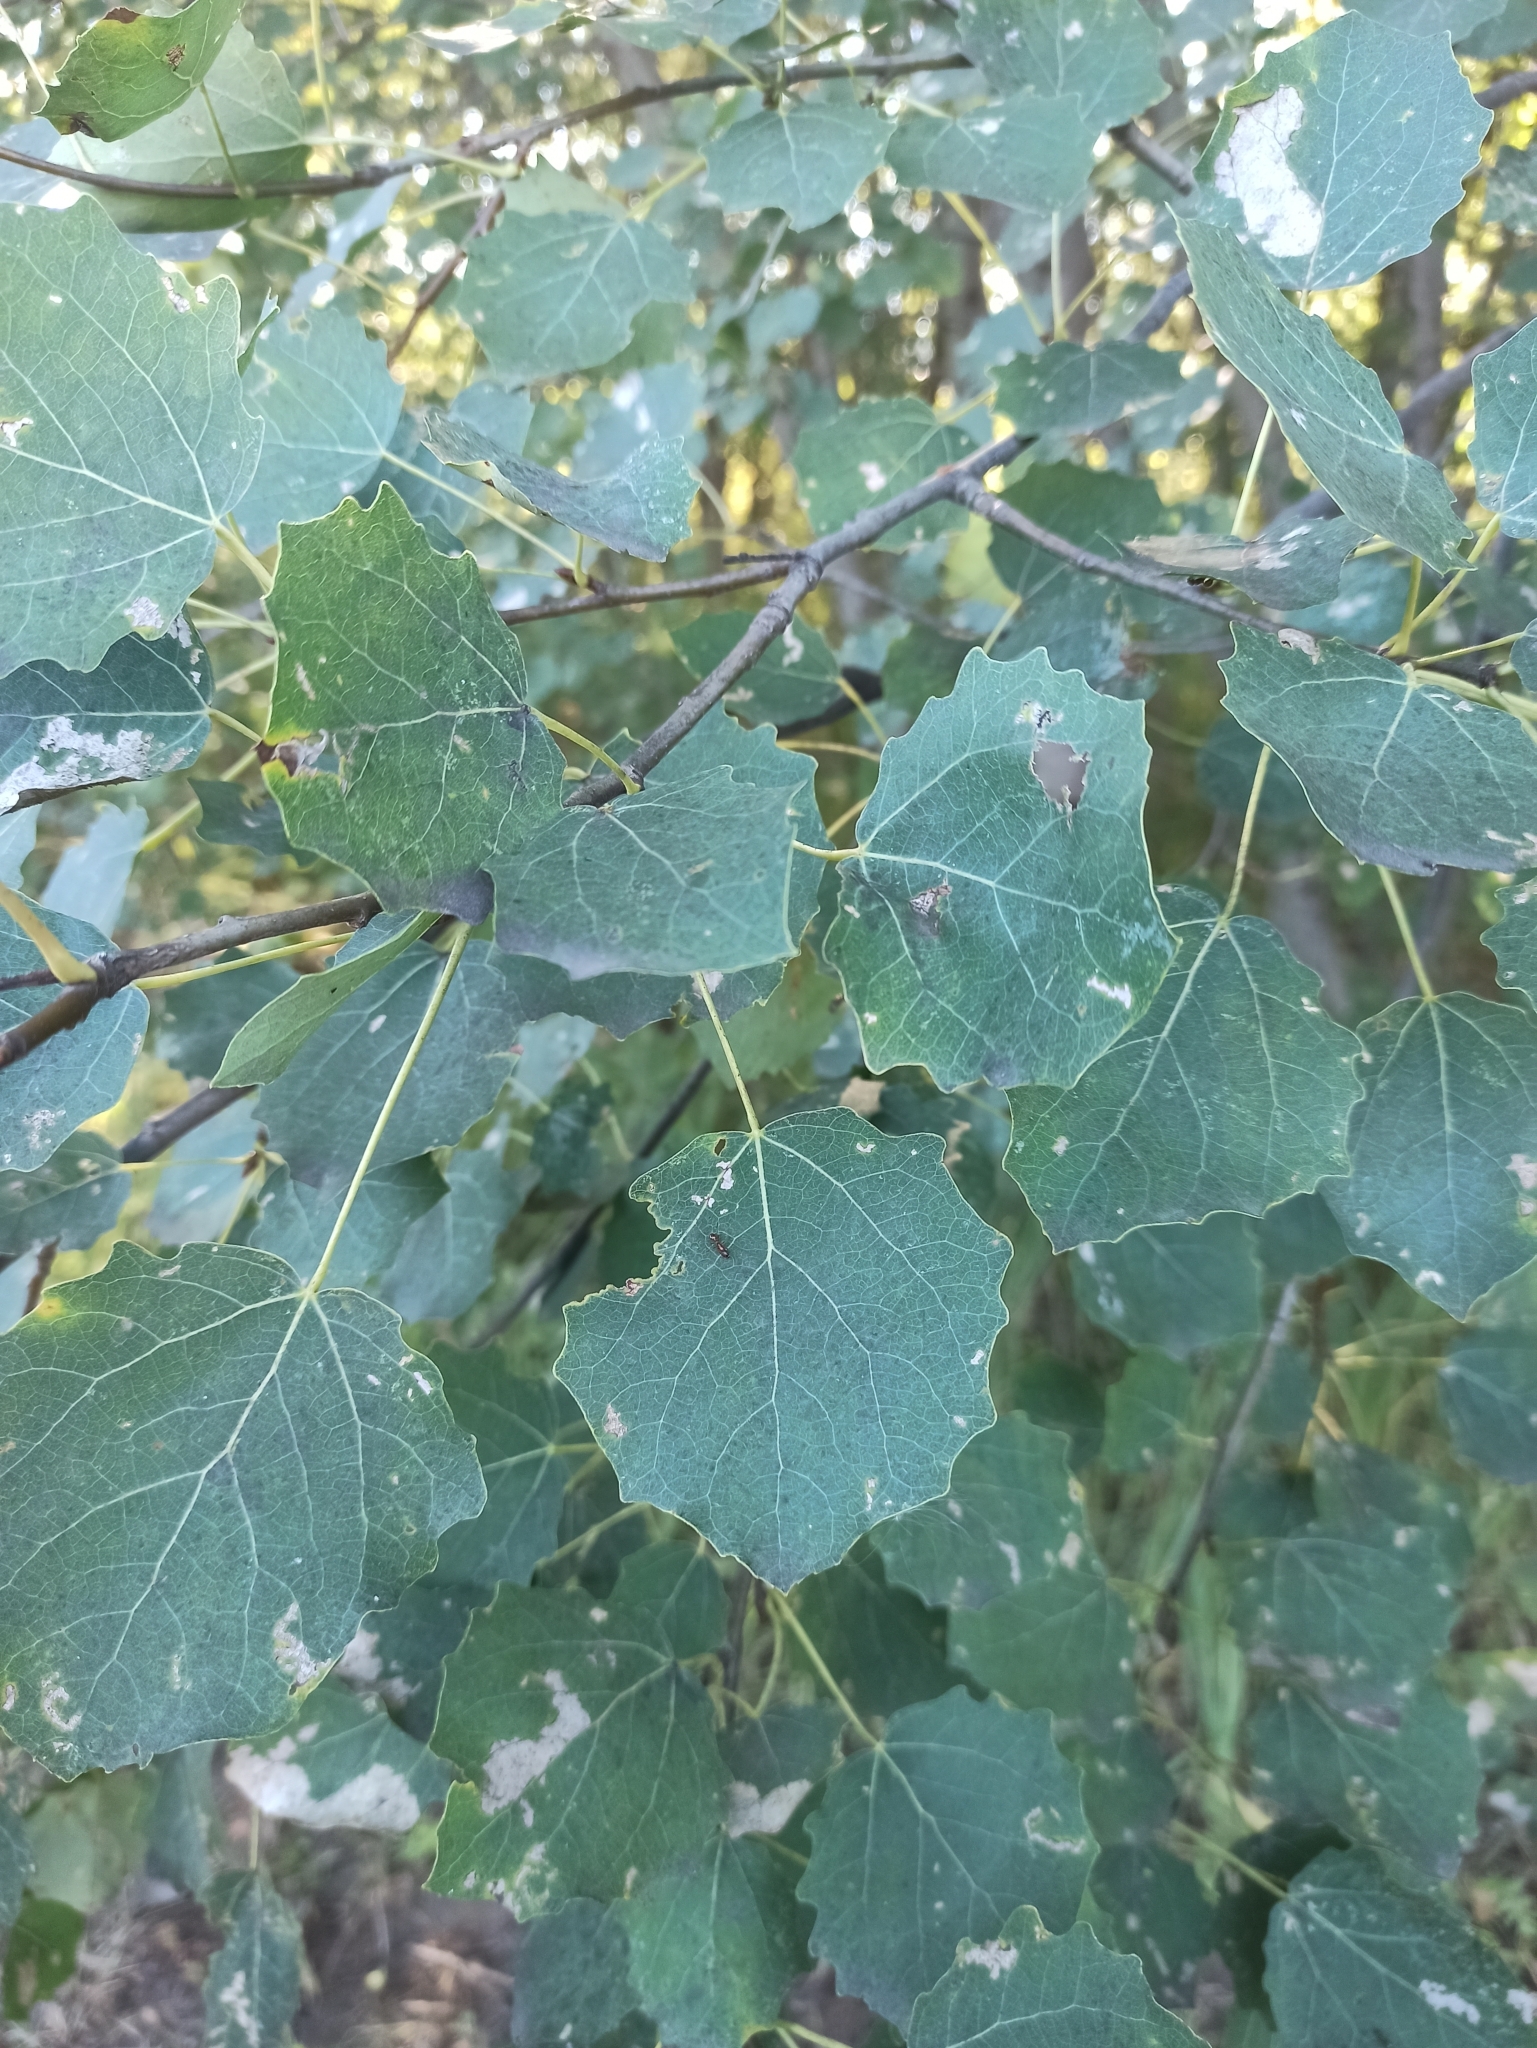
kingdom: Plantae
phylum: Tracheophyta
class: Magnoliopsida
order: Malpighiales
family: Salicaceae
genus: Populus
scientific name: Populus tremula
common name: European aspen
